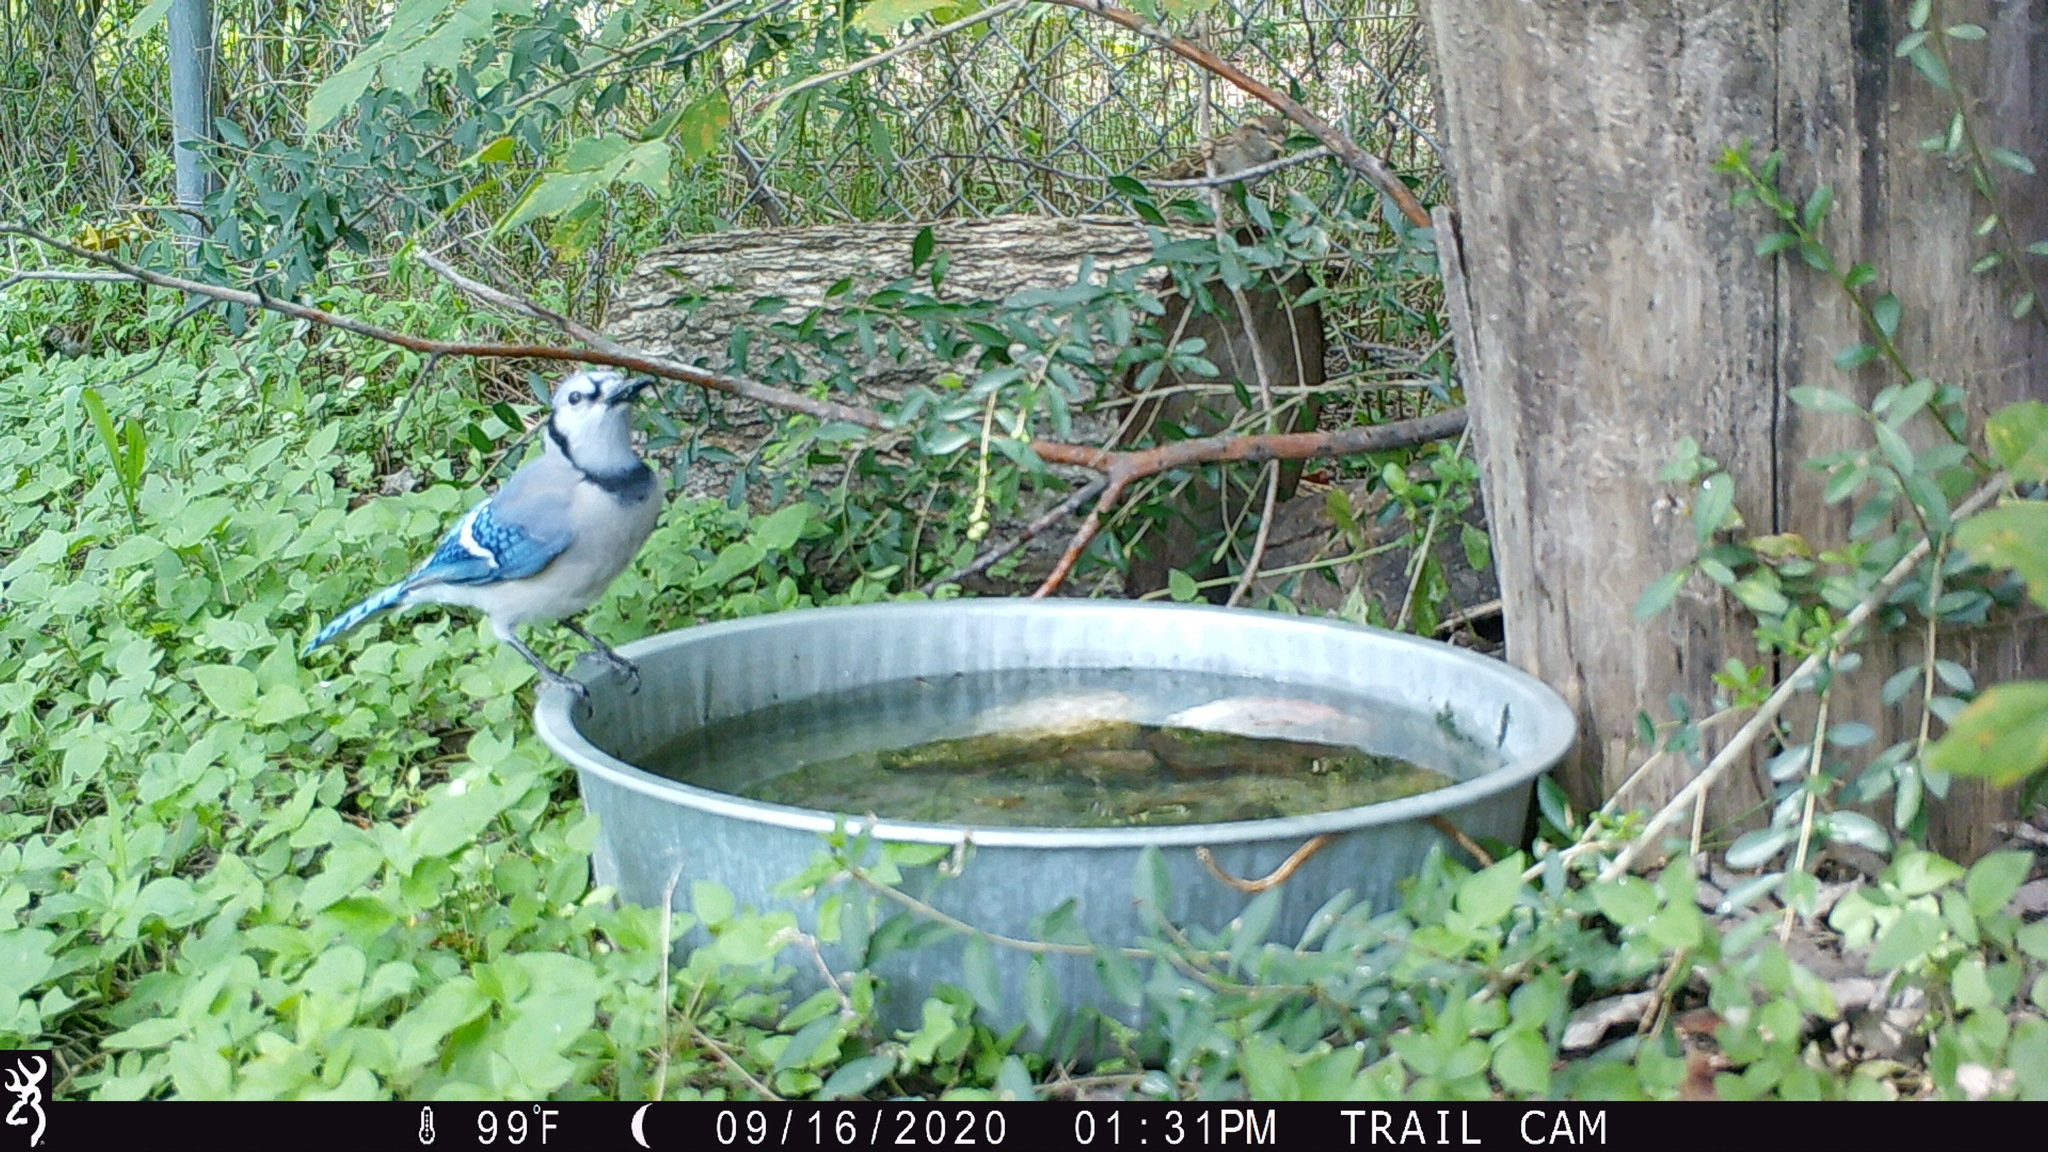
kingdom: Animalia
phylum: Chordata
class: Aves
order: Passeriformes
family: Corvidae
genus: Cyanocitta
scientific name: Cyanocitta cristata
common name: Blue jay
